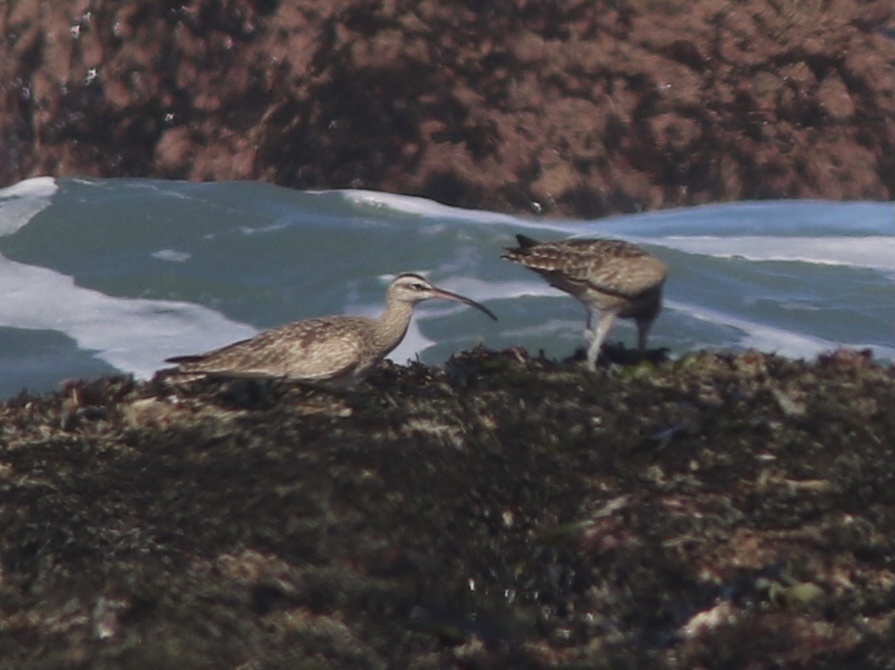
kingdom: Animalia
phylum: Chordata
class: Aves
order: Charadriiformes
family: Scolopacidae
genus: Numenius
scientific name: Numenius phaeopus
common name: Whimbrel
